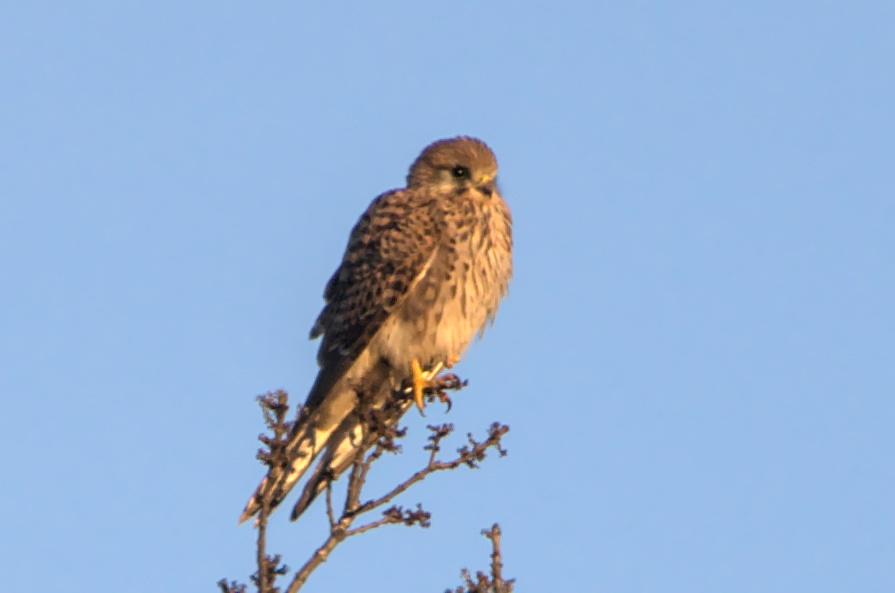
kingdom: Animalia
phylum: Chordata
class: Aves
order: Falconiformes
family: Falconidae
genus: Falco
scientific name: Falco tinnunculus
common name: Common kestrel
